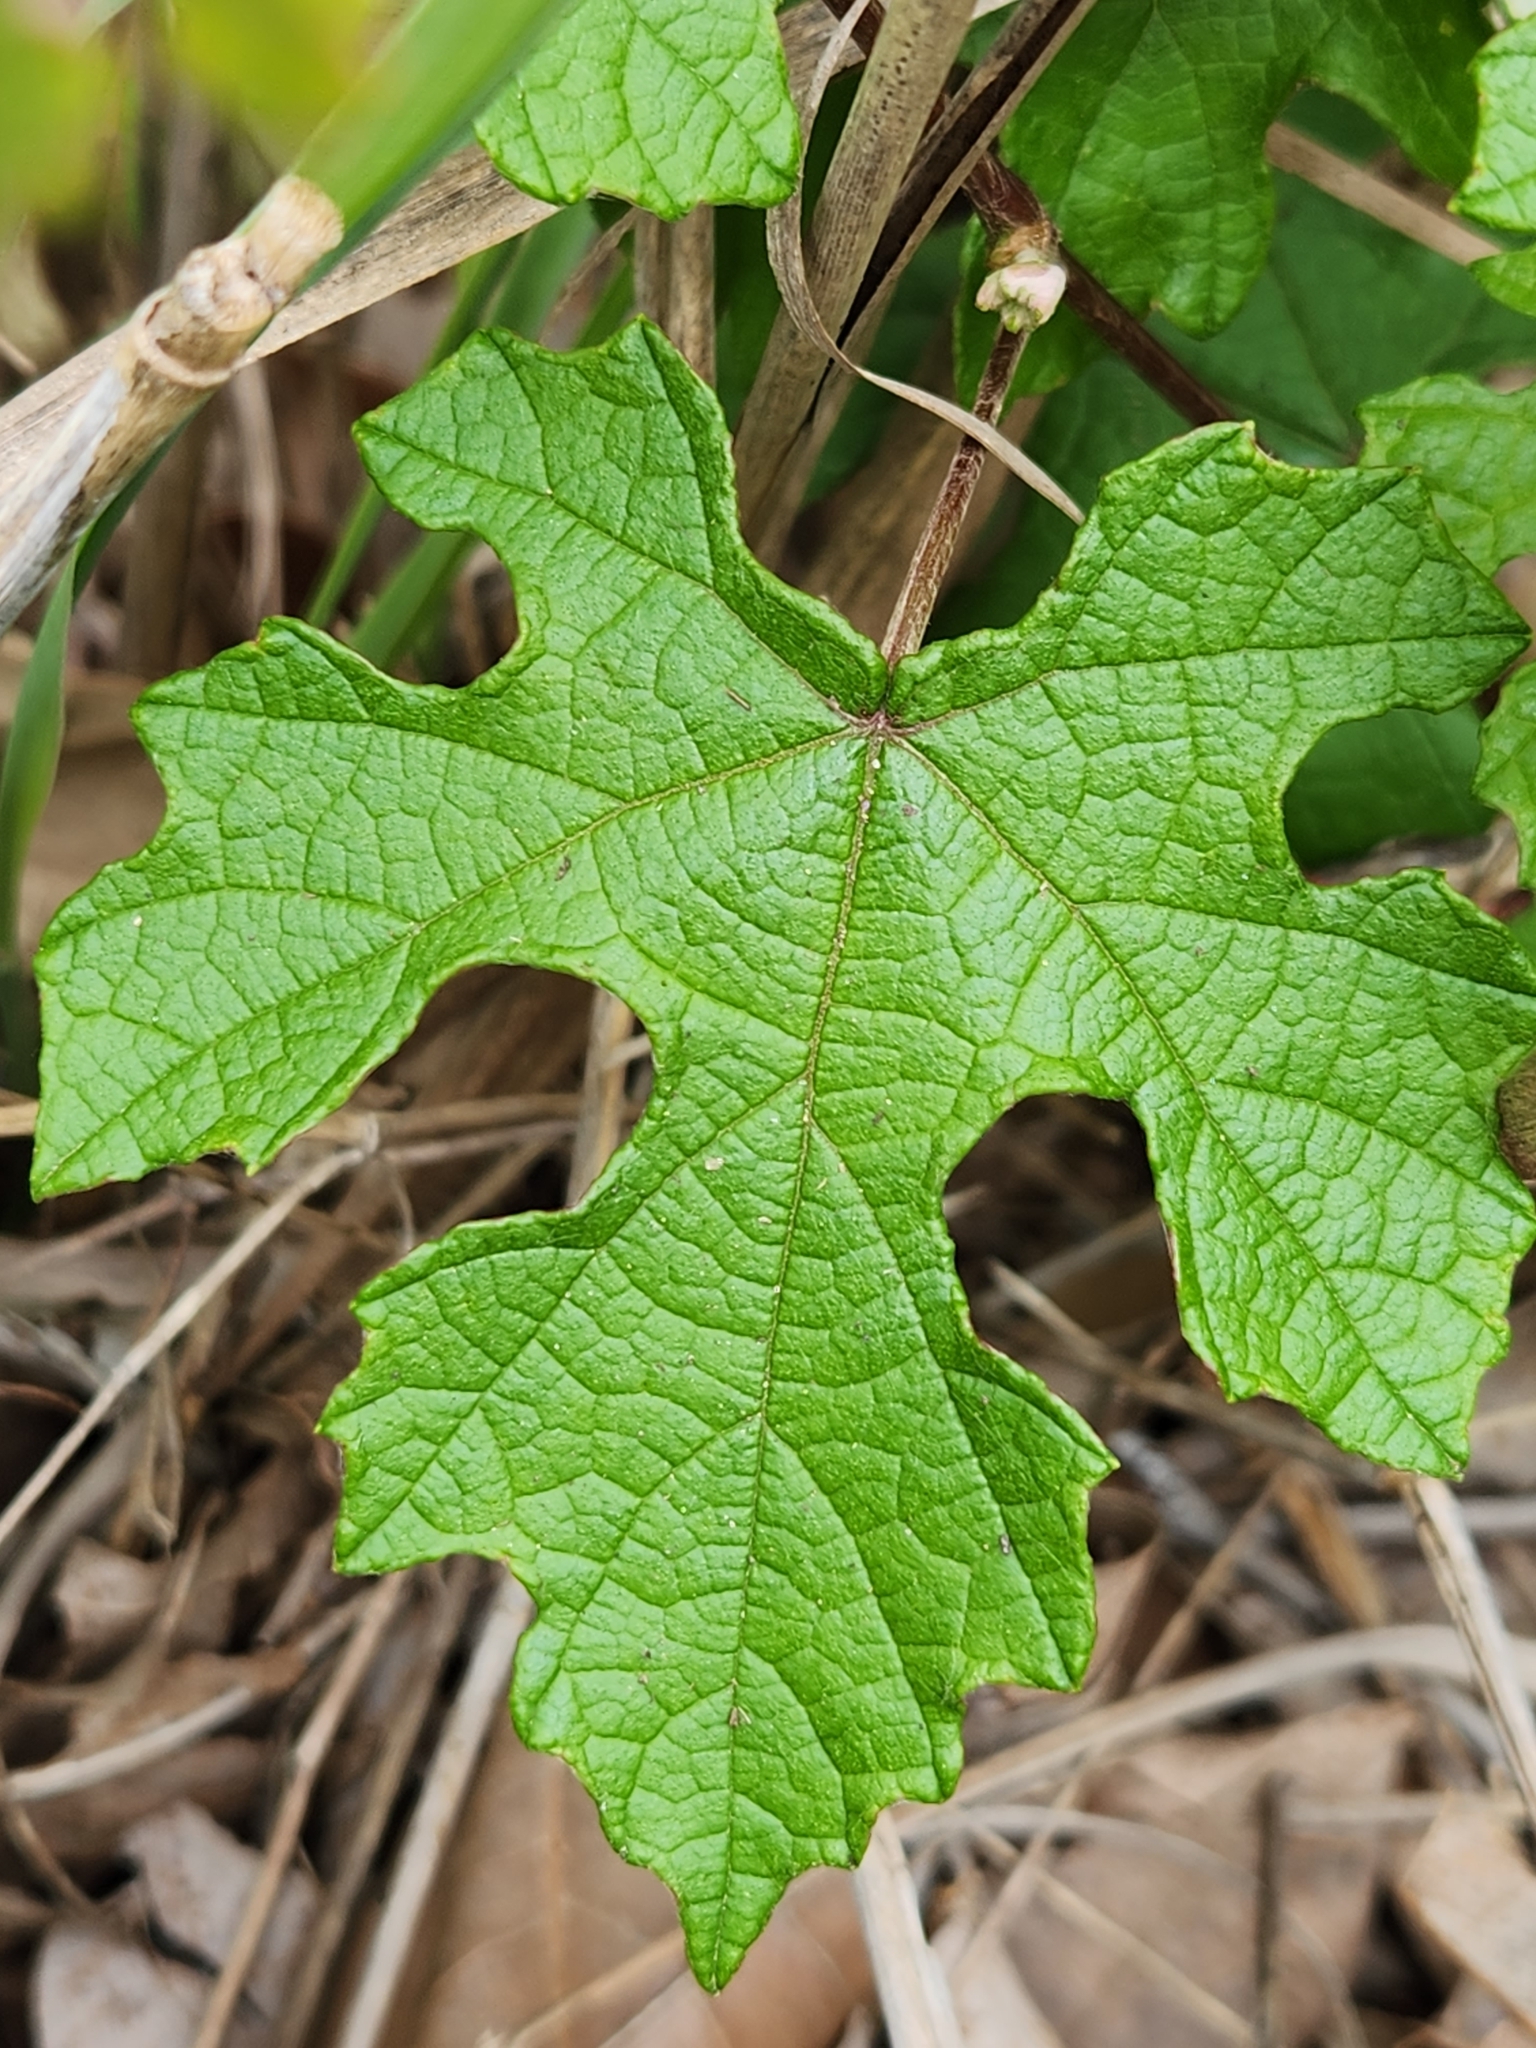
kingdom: Plantae
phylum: Tracheophyta
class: Magnoliopsida
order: Vitales
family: Vitaceae
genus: Vitis
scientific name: Vitis mustangensis
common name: Mustang grape
